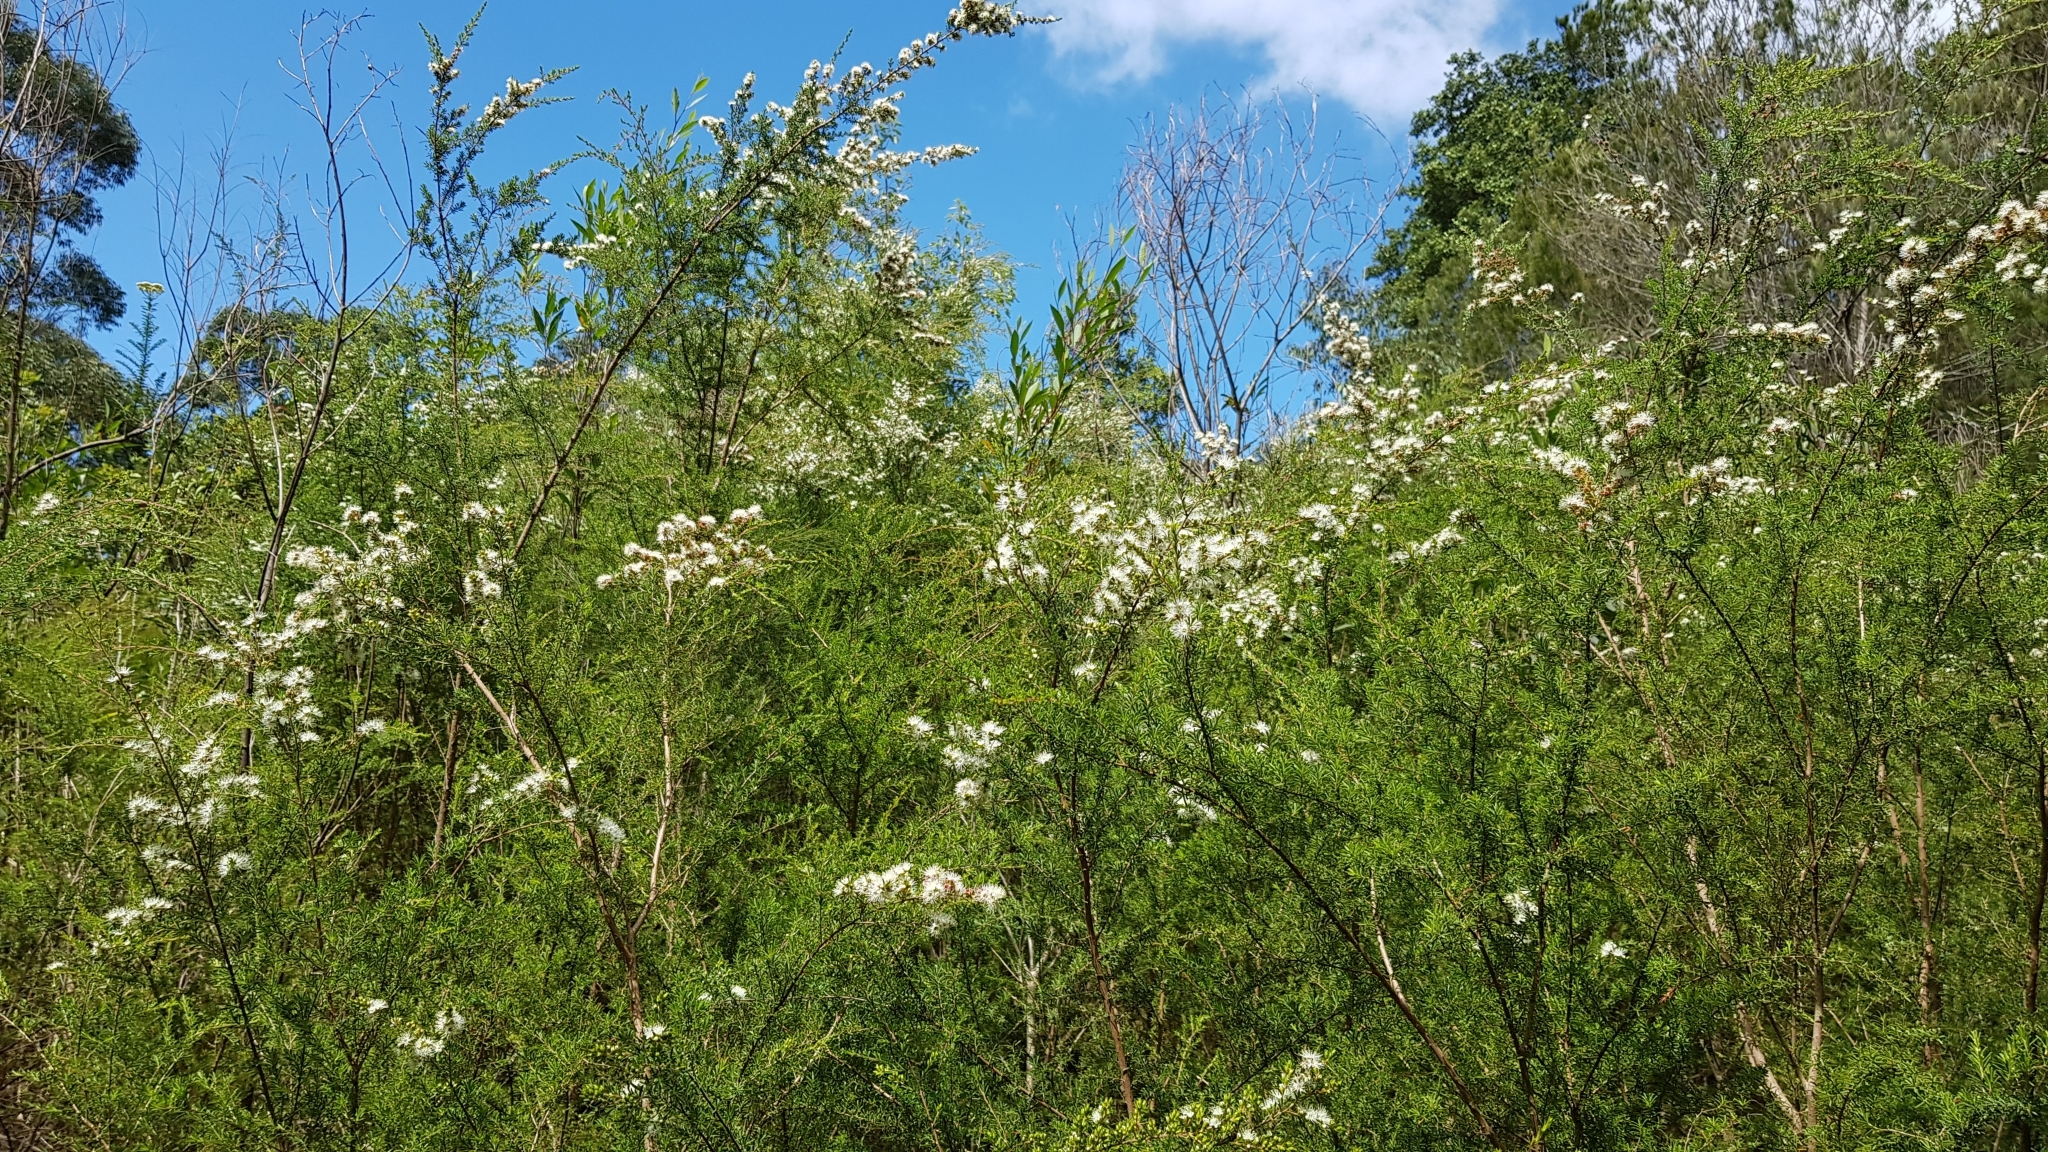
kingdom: Plantae
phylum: Tracheophyta
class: Magnoliopsida
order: Myrtales
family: Myrtaceae
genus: Kunzea
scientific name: Kunzea ambigua
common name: Tickbush
